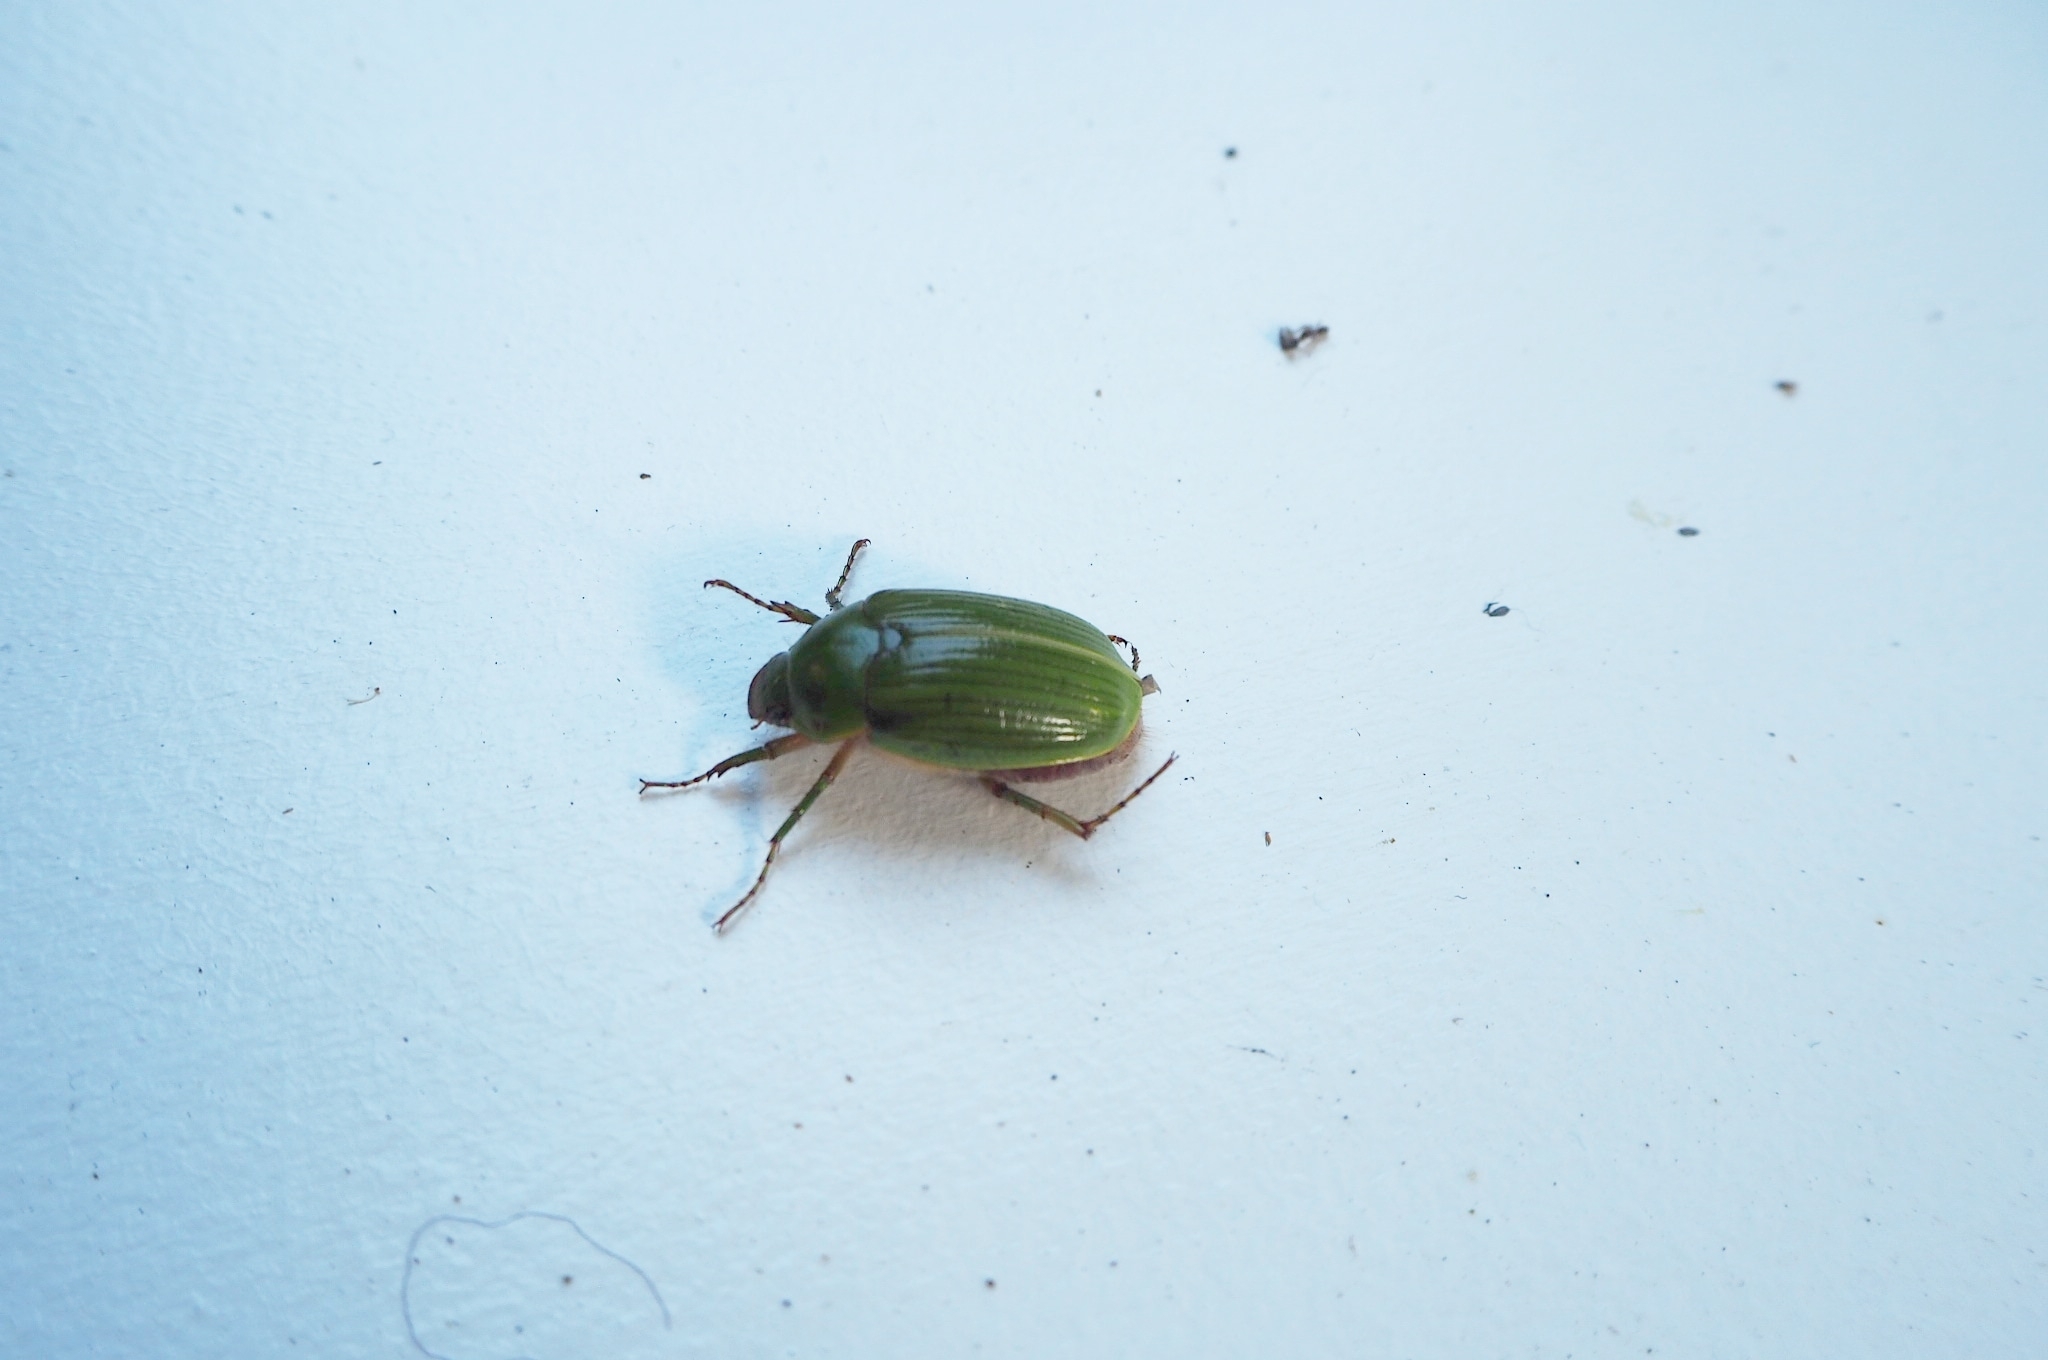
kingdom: Animalia
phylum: Arthropoda
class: Insecta
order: Coleoptera
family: Scarabaeidae
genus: Stethaspis
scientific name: Stethaspis longicornis
